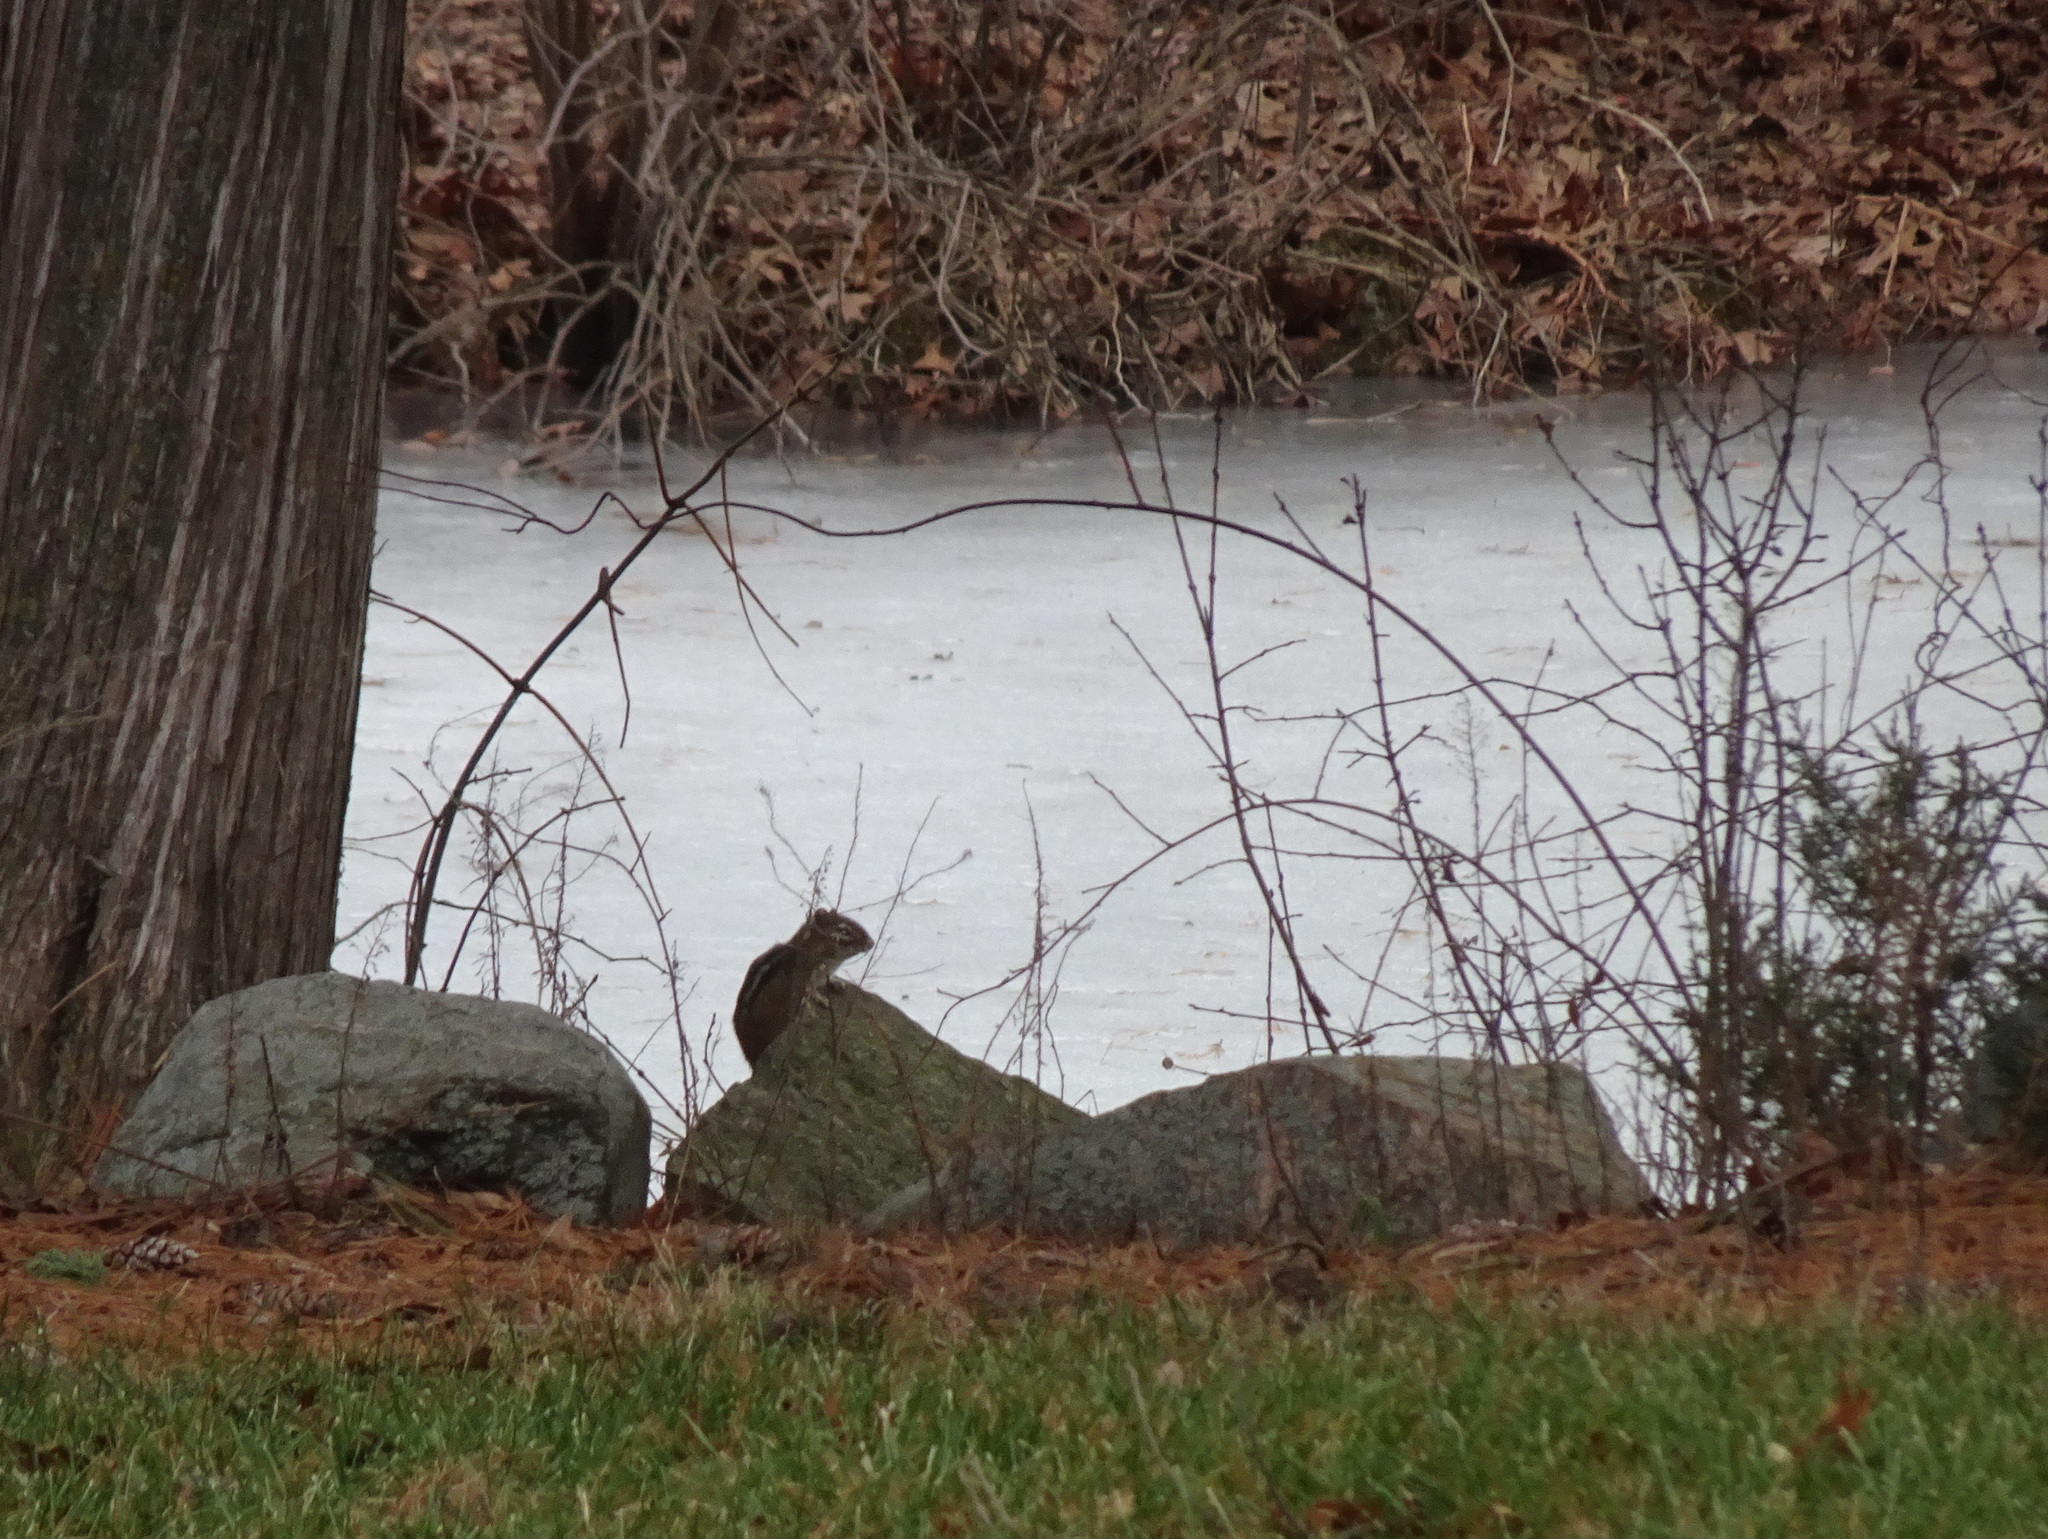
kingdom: Animalia
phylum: Chordata
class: Mammalia
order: Rodentia
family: Sciuridae
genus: Tamias
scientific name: Tamias striatus
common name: Eastern chipmunk
